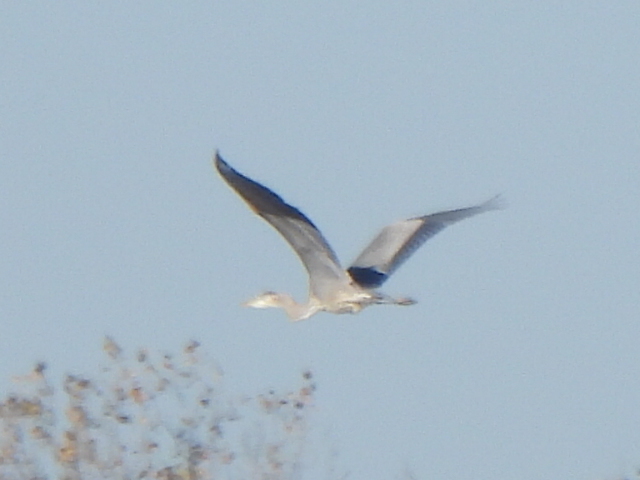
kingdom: Animalia
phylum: Chordata
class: Aves
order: Pelecaniformes
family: Ardeidae
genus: Ardea
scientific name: Ardea herodias
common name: Great blue heron
